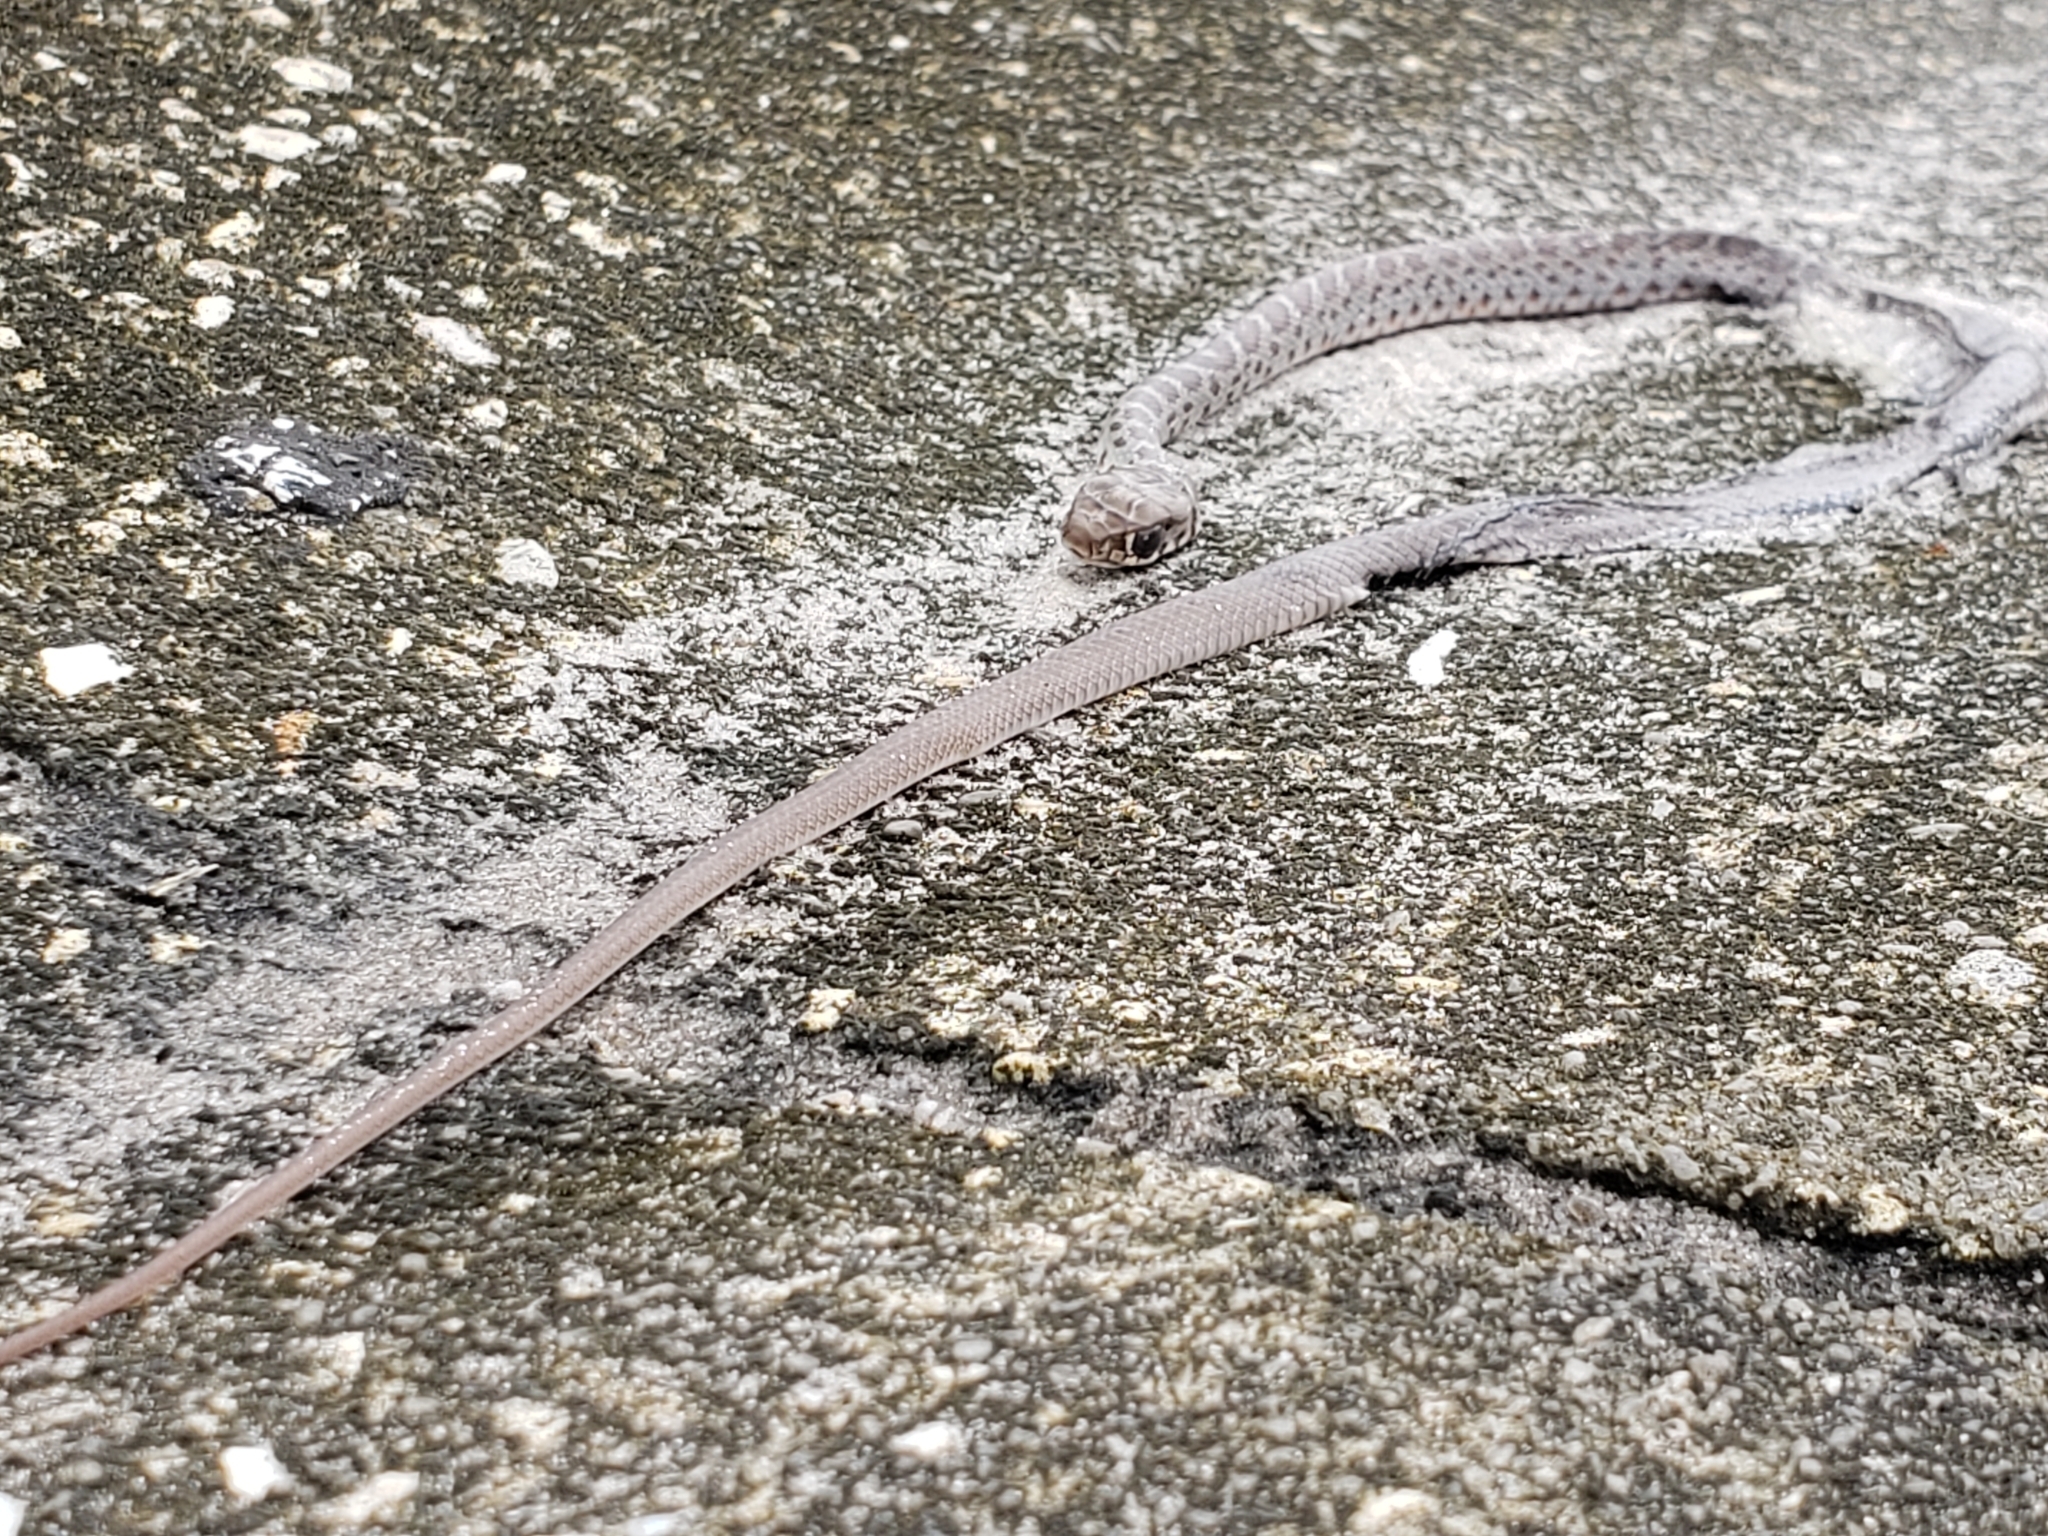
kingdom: Animalia
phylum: Chordata
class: Squamata
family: Colubridae
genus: Coluber
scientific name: Coluber constrictor
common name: Eastern racer
